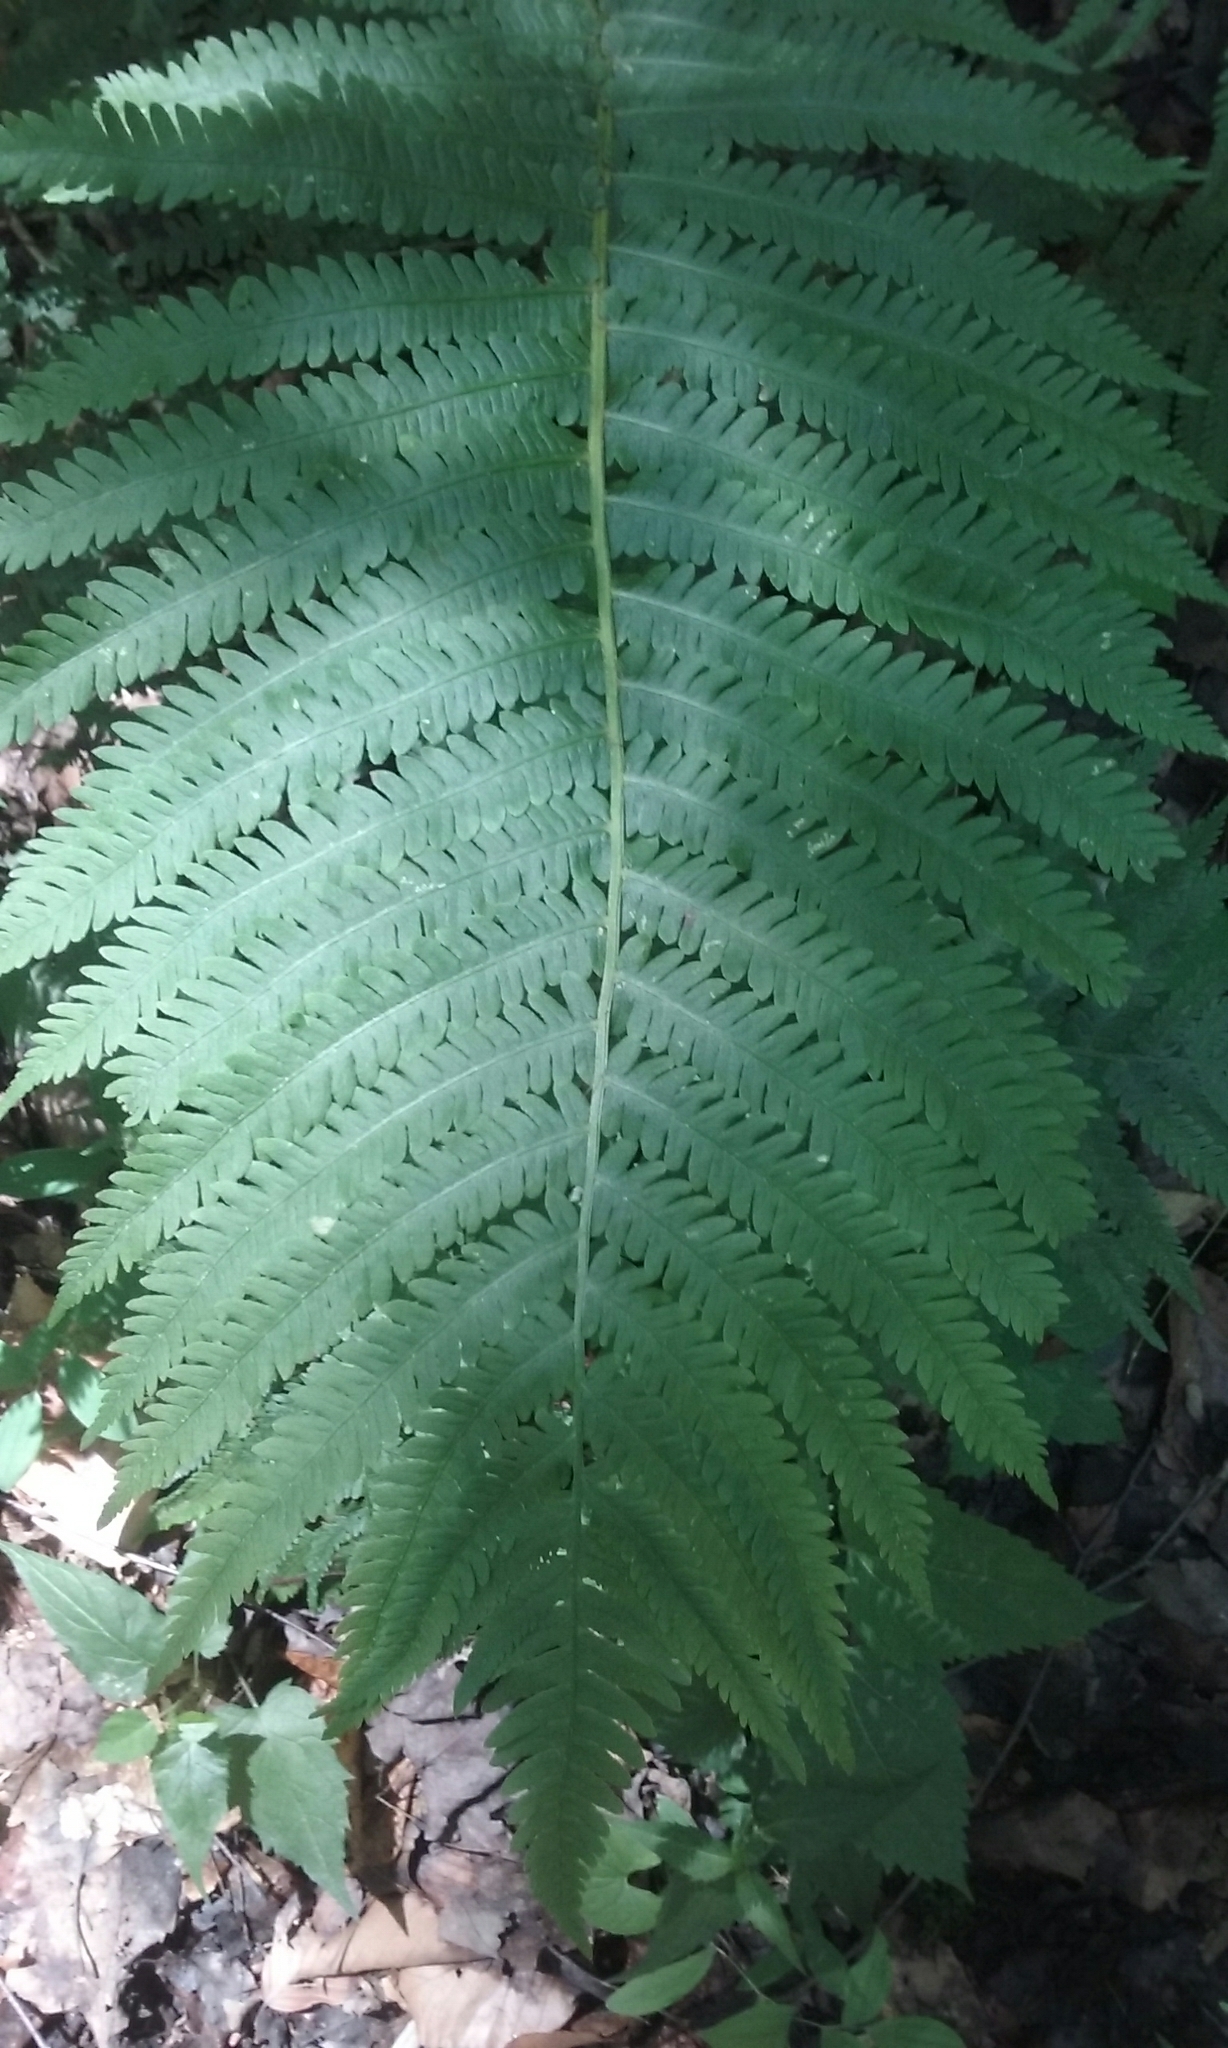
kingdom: Plantae
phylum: Tracheophyta
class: Polypodiopsida
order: Polypodiales
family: Onocleaceae
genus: Matteuccia
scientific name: Matteuccia struthiopteris
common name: Ostrich fern
